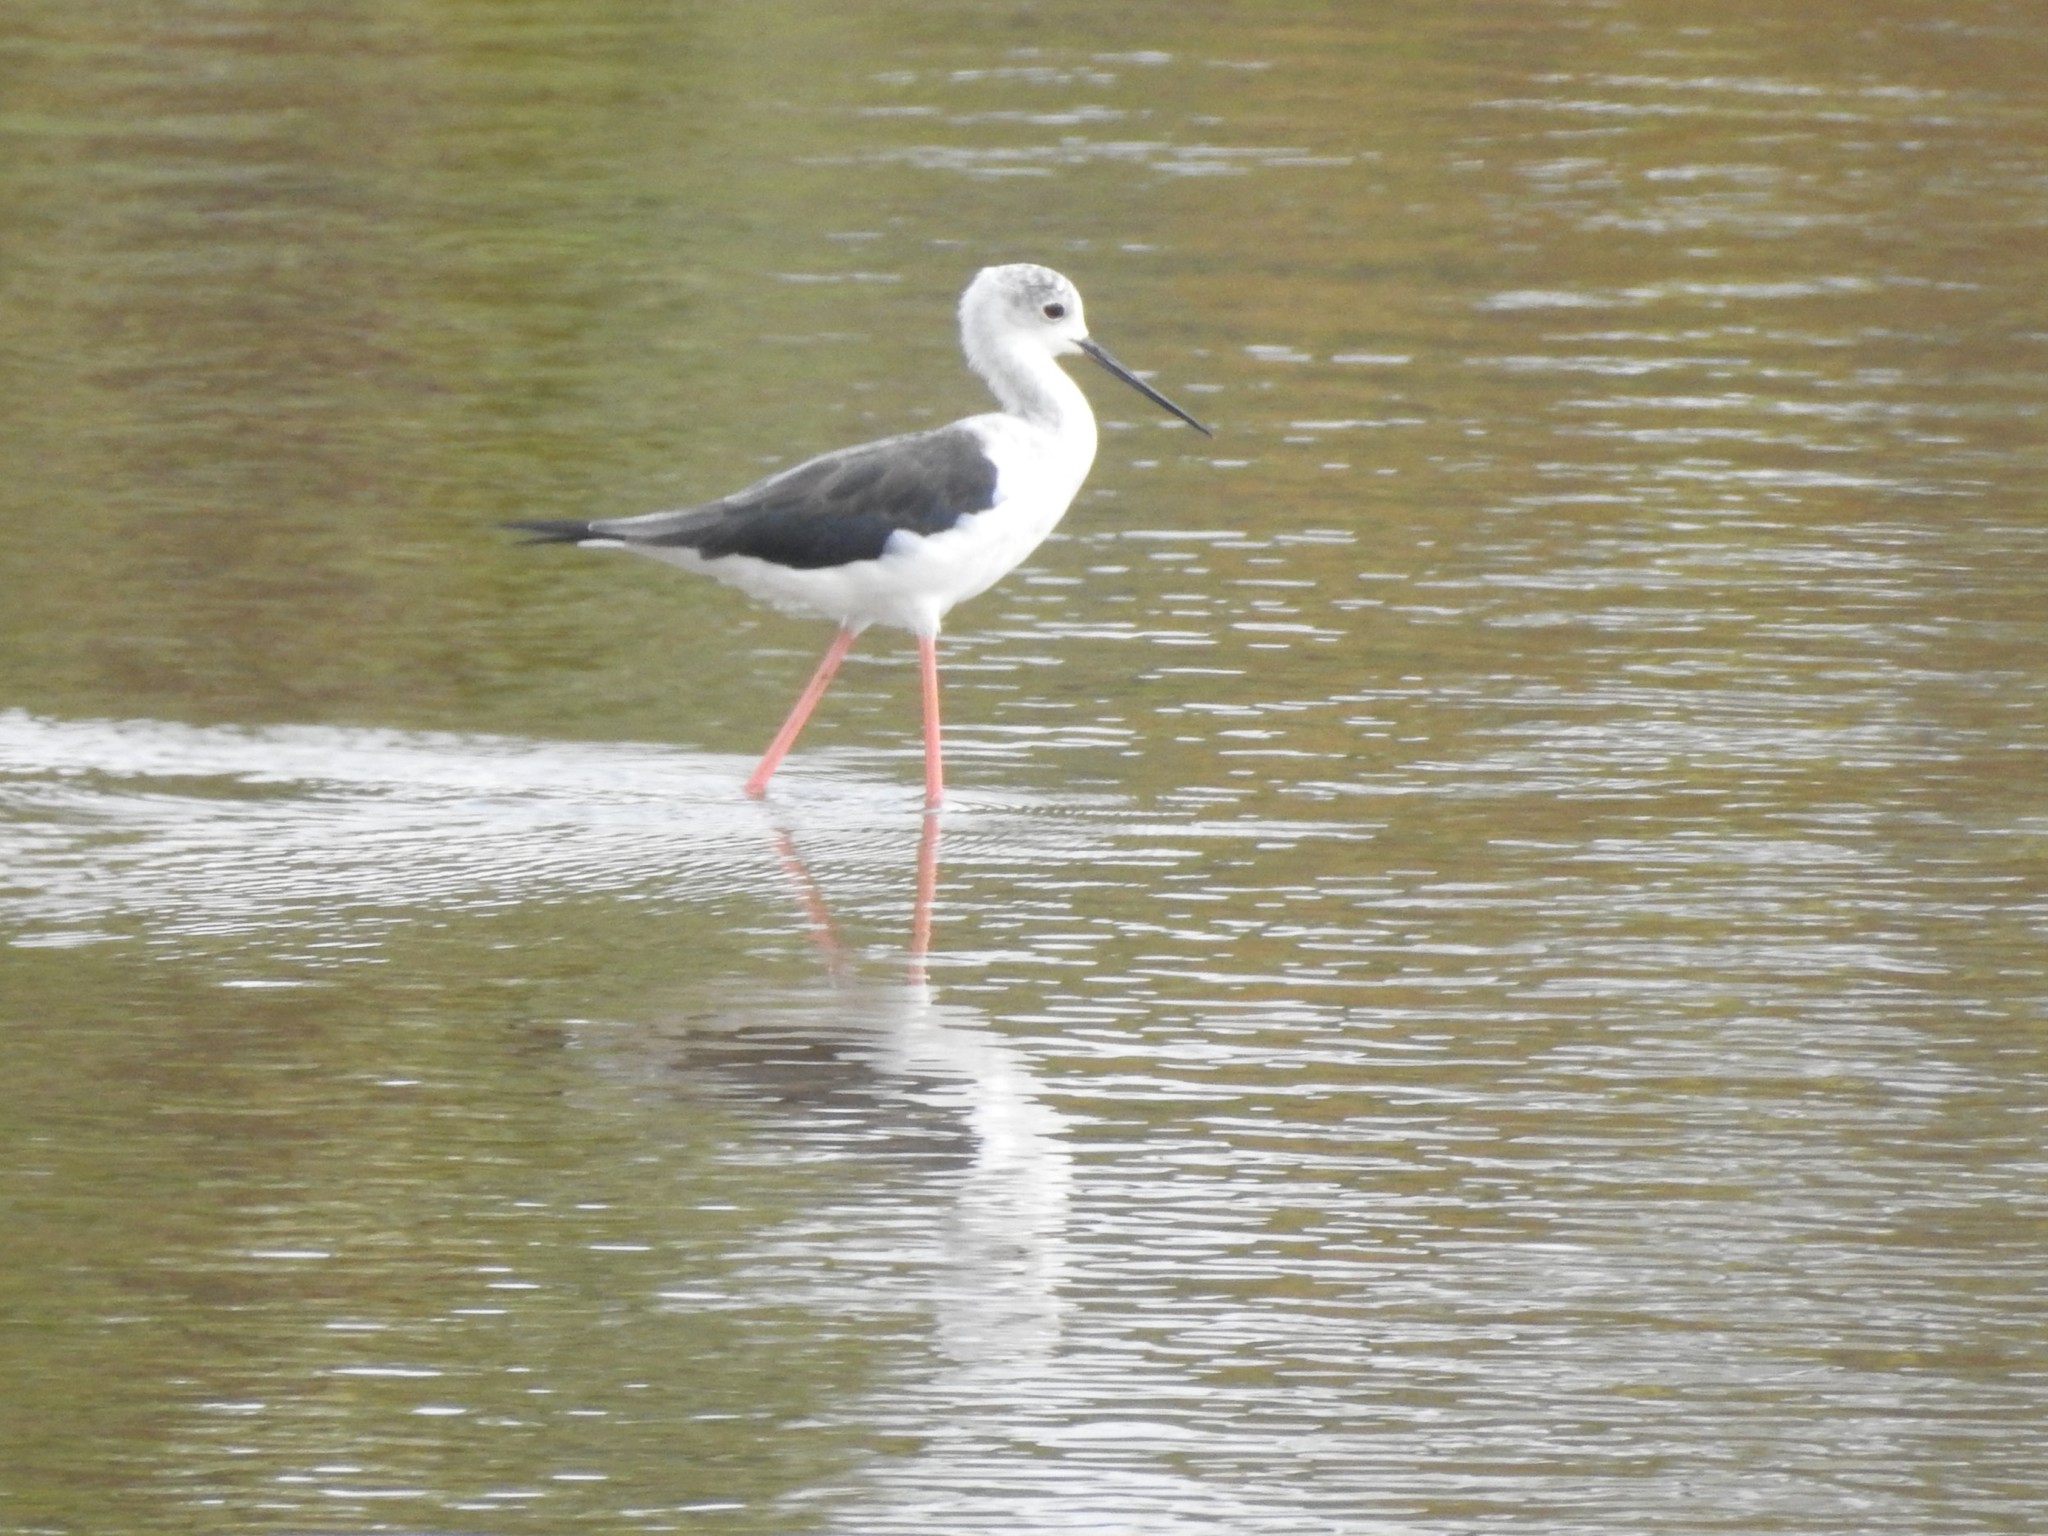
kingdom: Animalia
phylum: Chordata
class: Aves
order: Charadriiformes
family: Recurvirostridae
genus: Himantopus
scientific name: Himantopus himantopus
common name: Black-winged stilt
